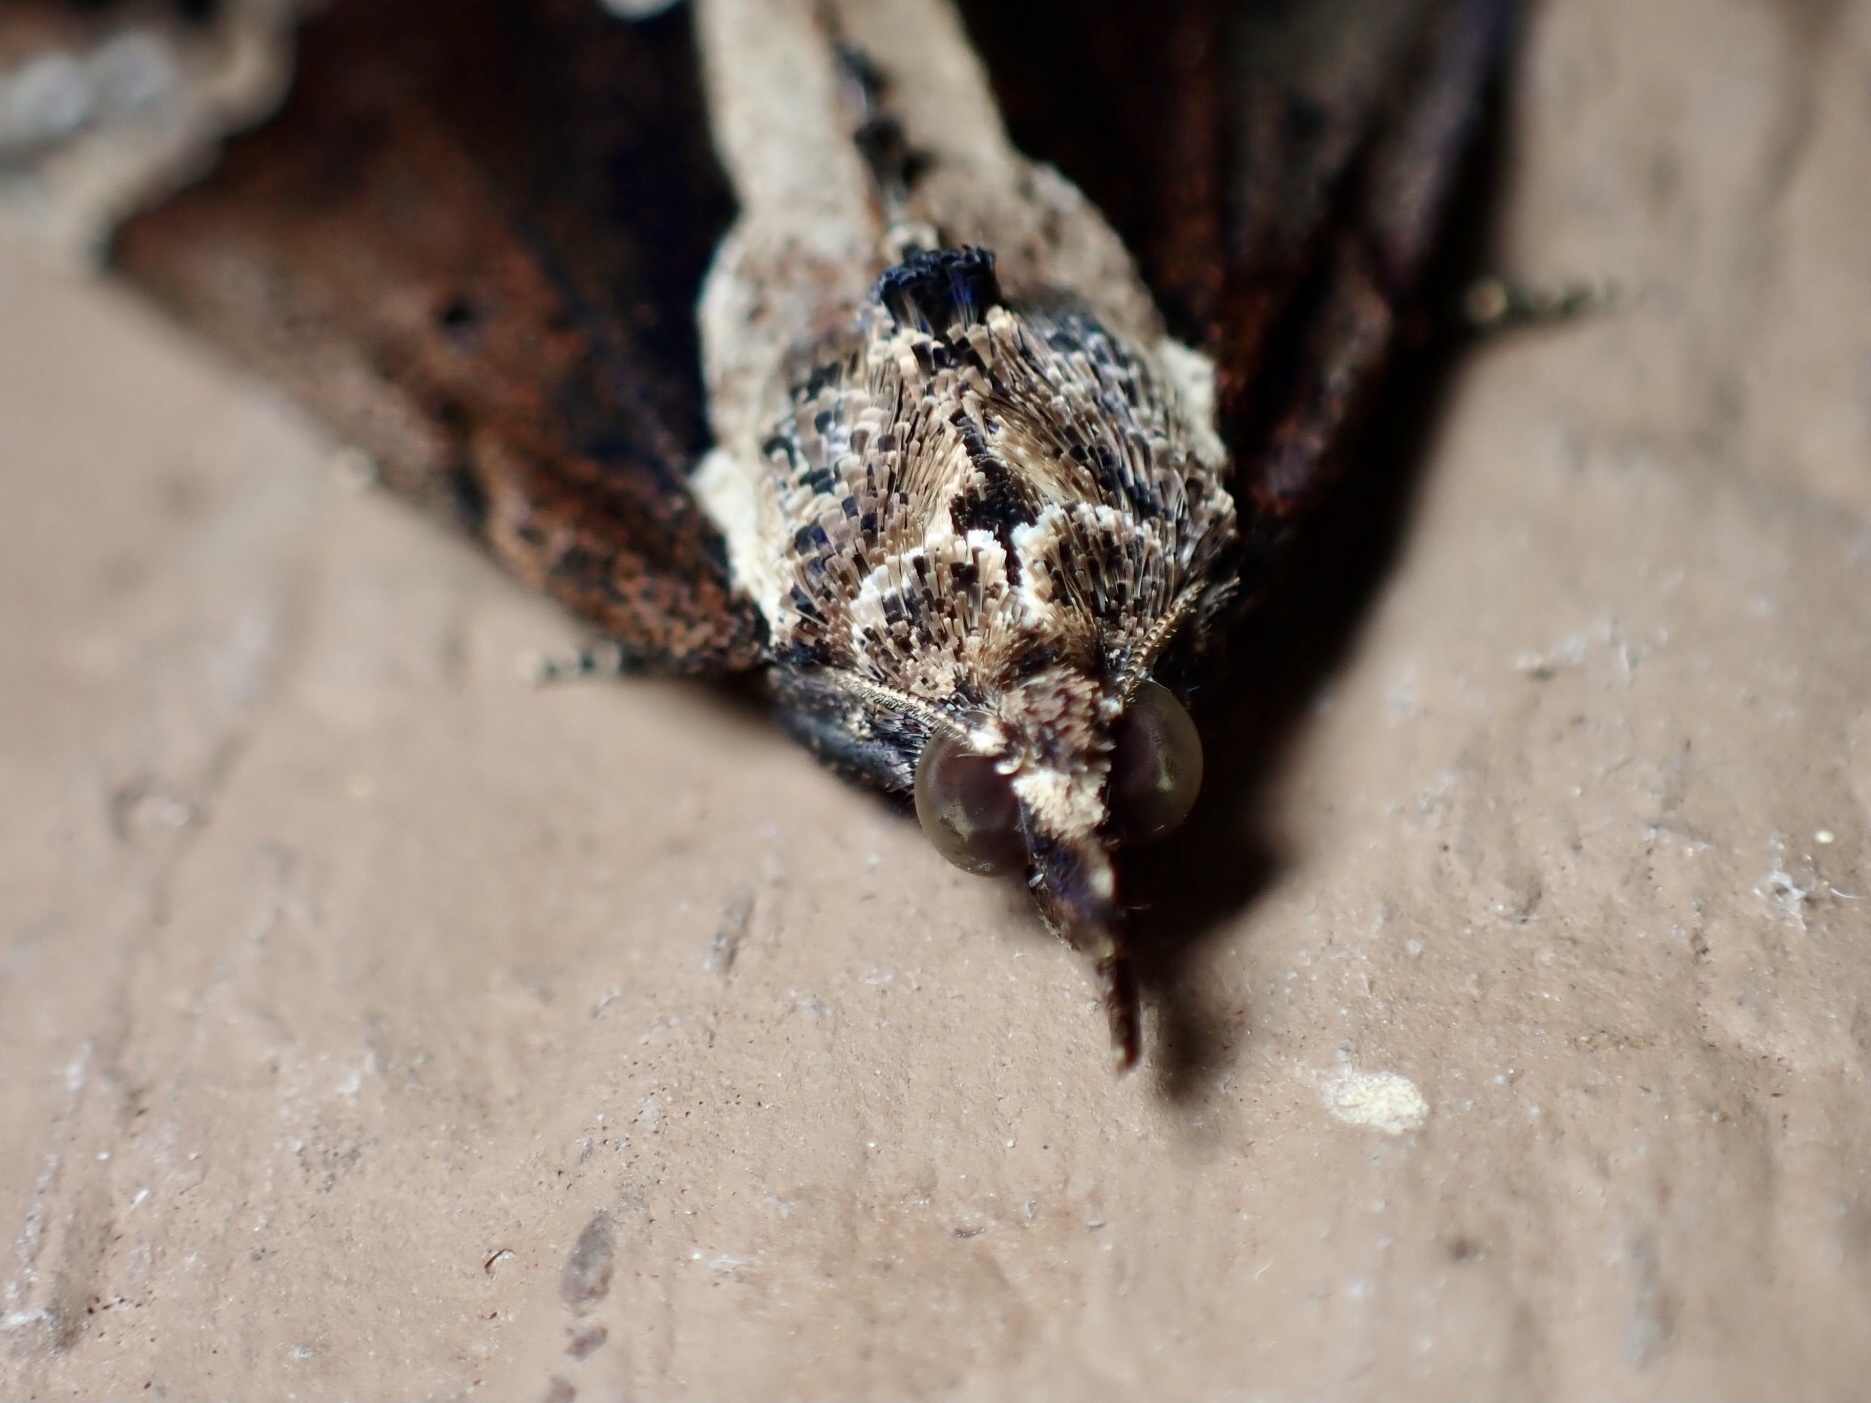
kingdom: Animalia
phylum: Arthropoda
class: Insecta
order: Lepidoptera
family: Erebidae
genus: Hypena
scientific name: Hypena baltimoralis
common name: Baltimore snout
